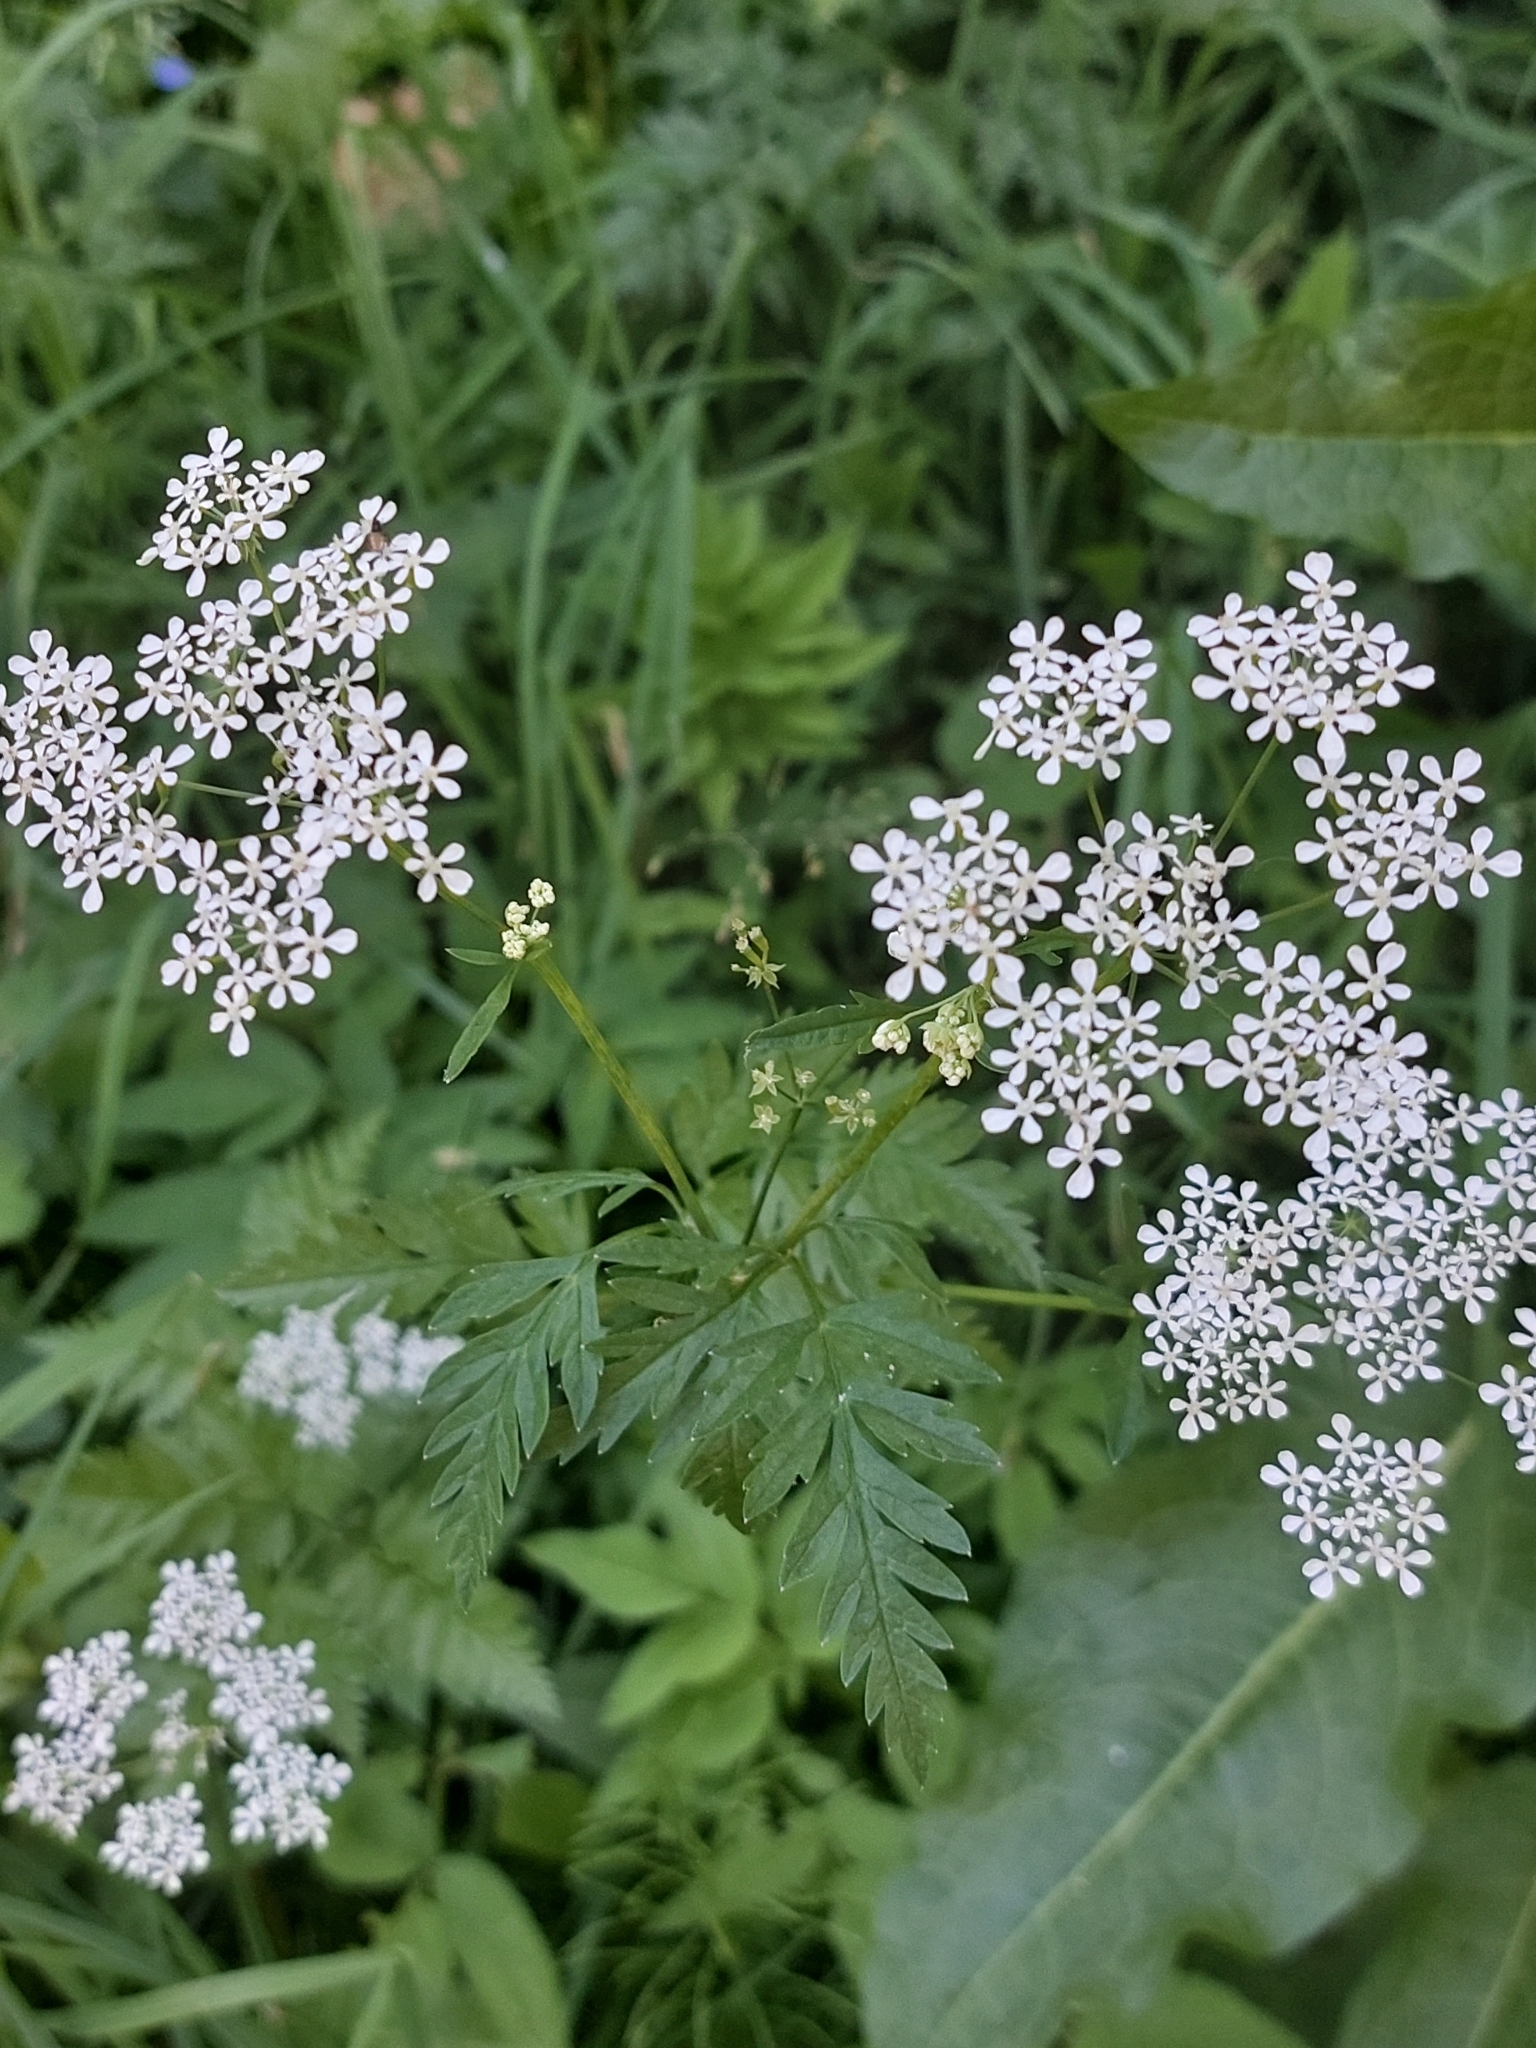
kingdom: Plantae
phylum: Tracheophyta
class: Magnoliopsida
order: Apiales
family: Apiaceae
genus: Anthriscus
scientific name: Anthriscus sylvestris
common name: Cow parsley
